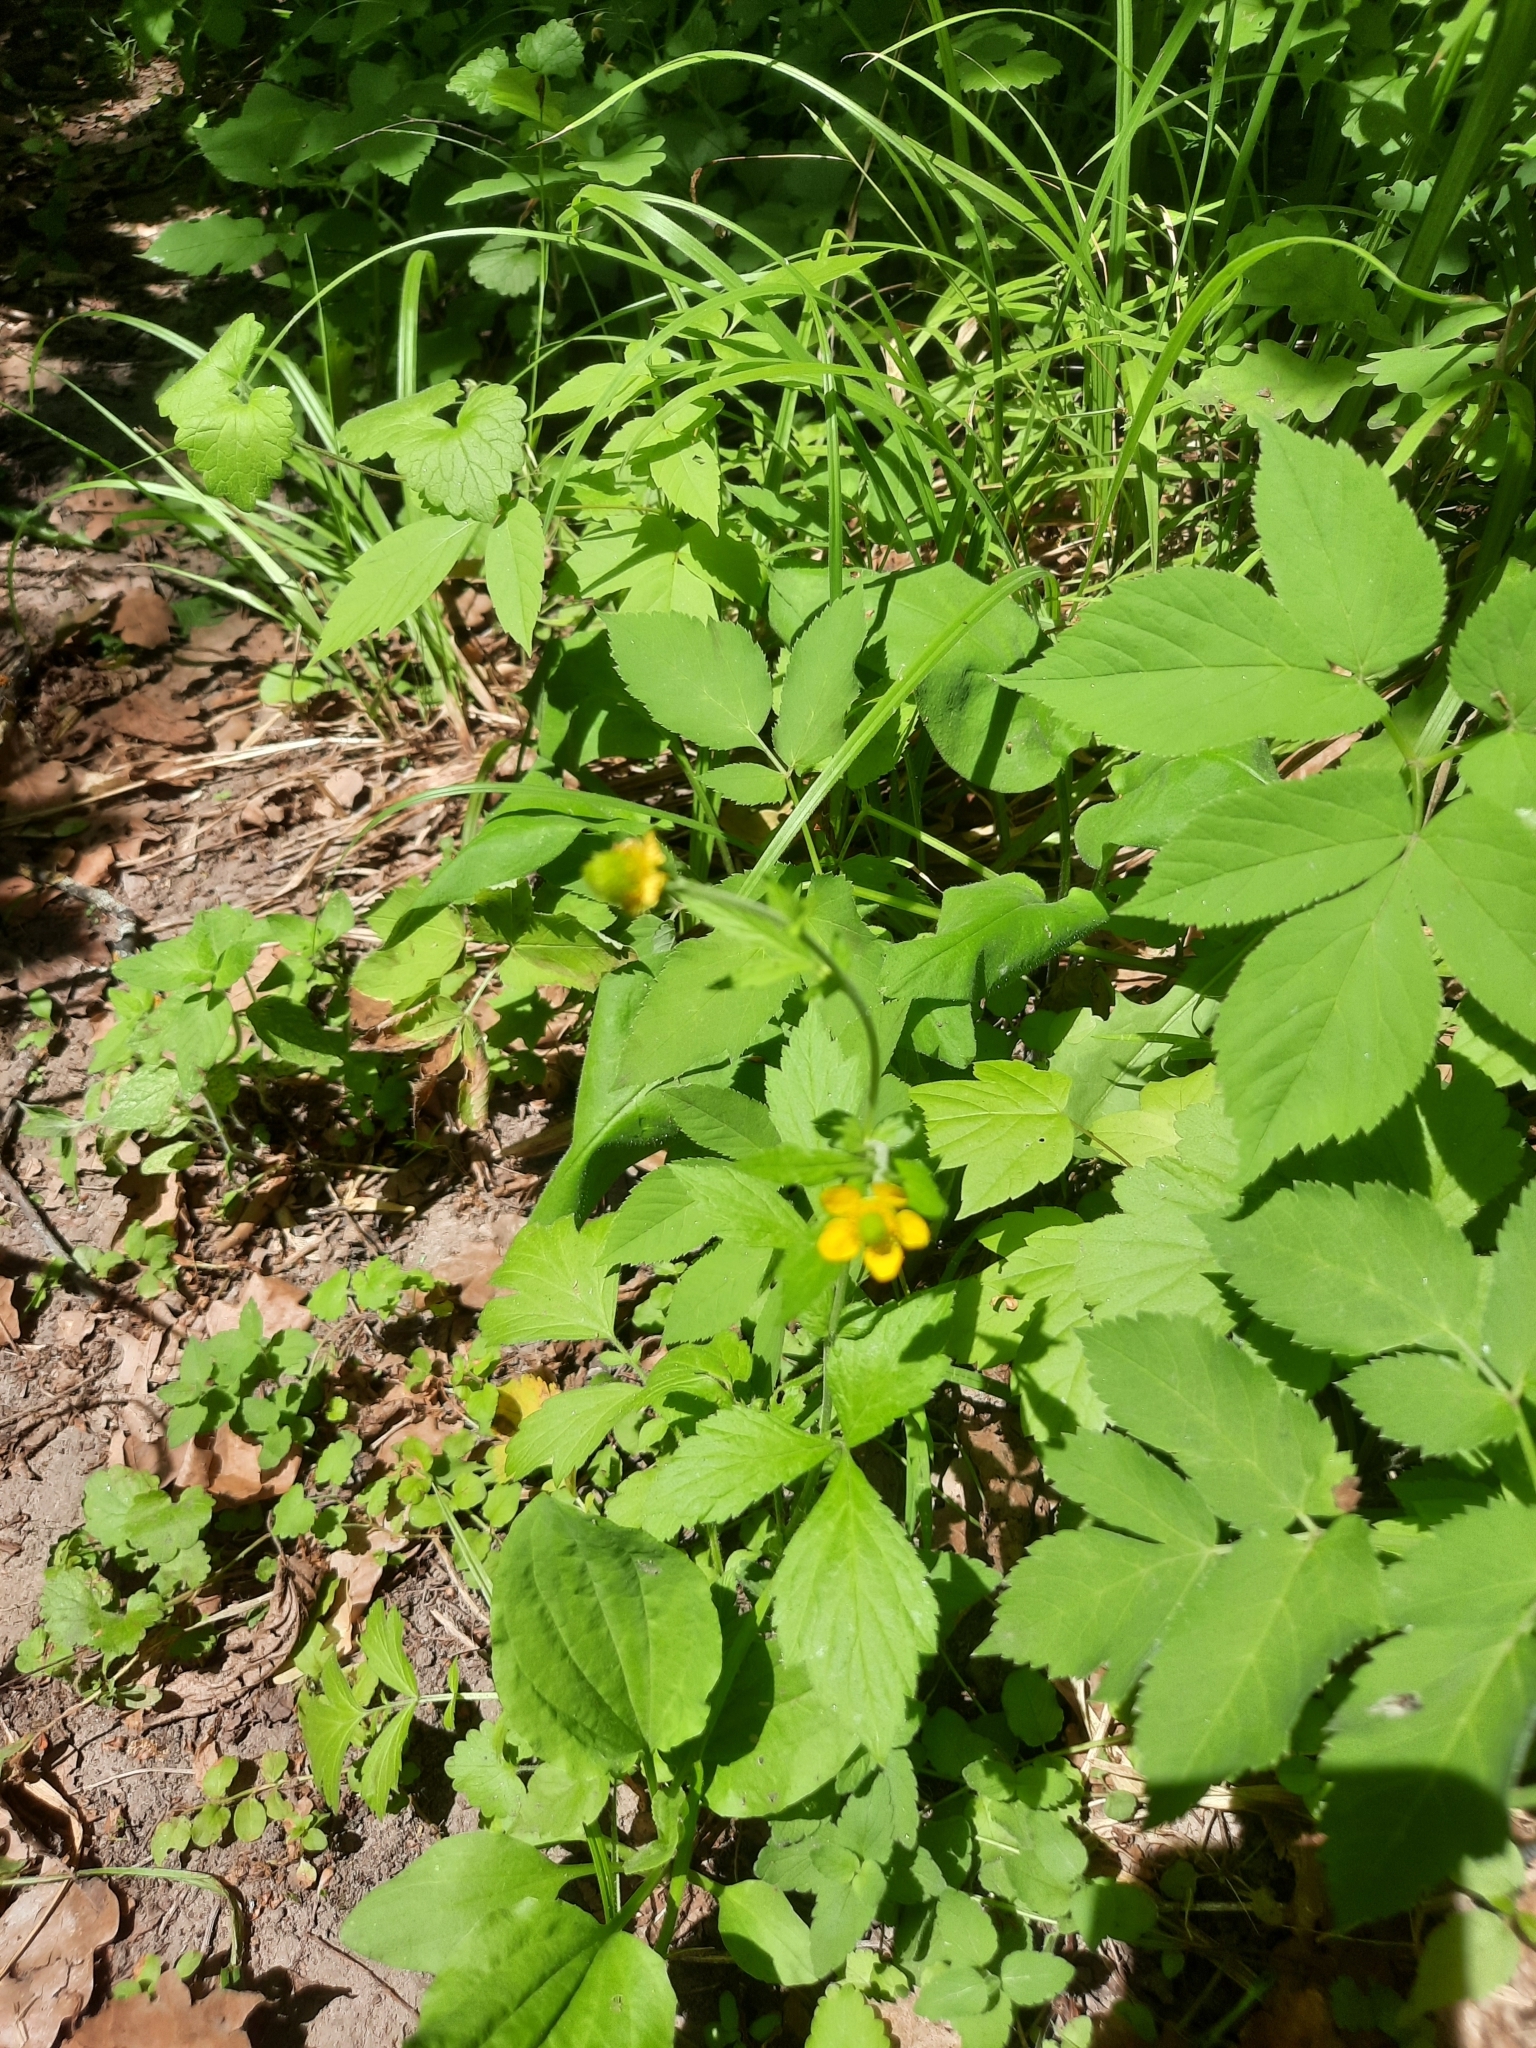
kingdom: Plantae
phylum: Tracheophyta
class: Magnoliopsida
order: Rosales
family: Rosaceae
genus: Geum
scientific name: Geum aleppicum
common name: Yellow avens
